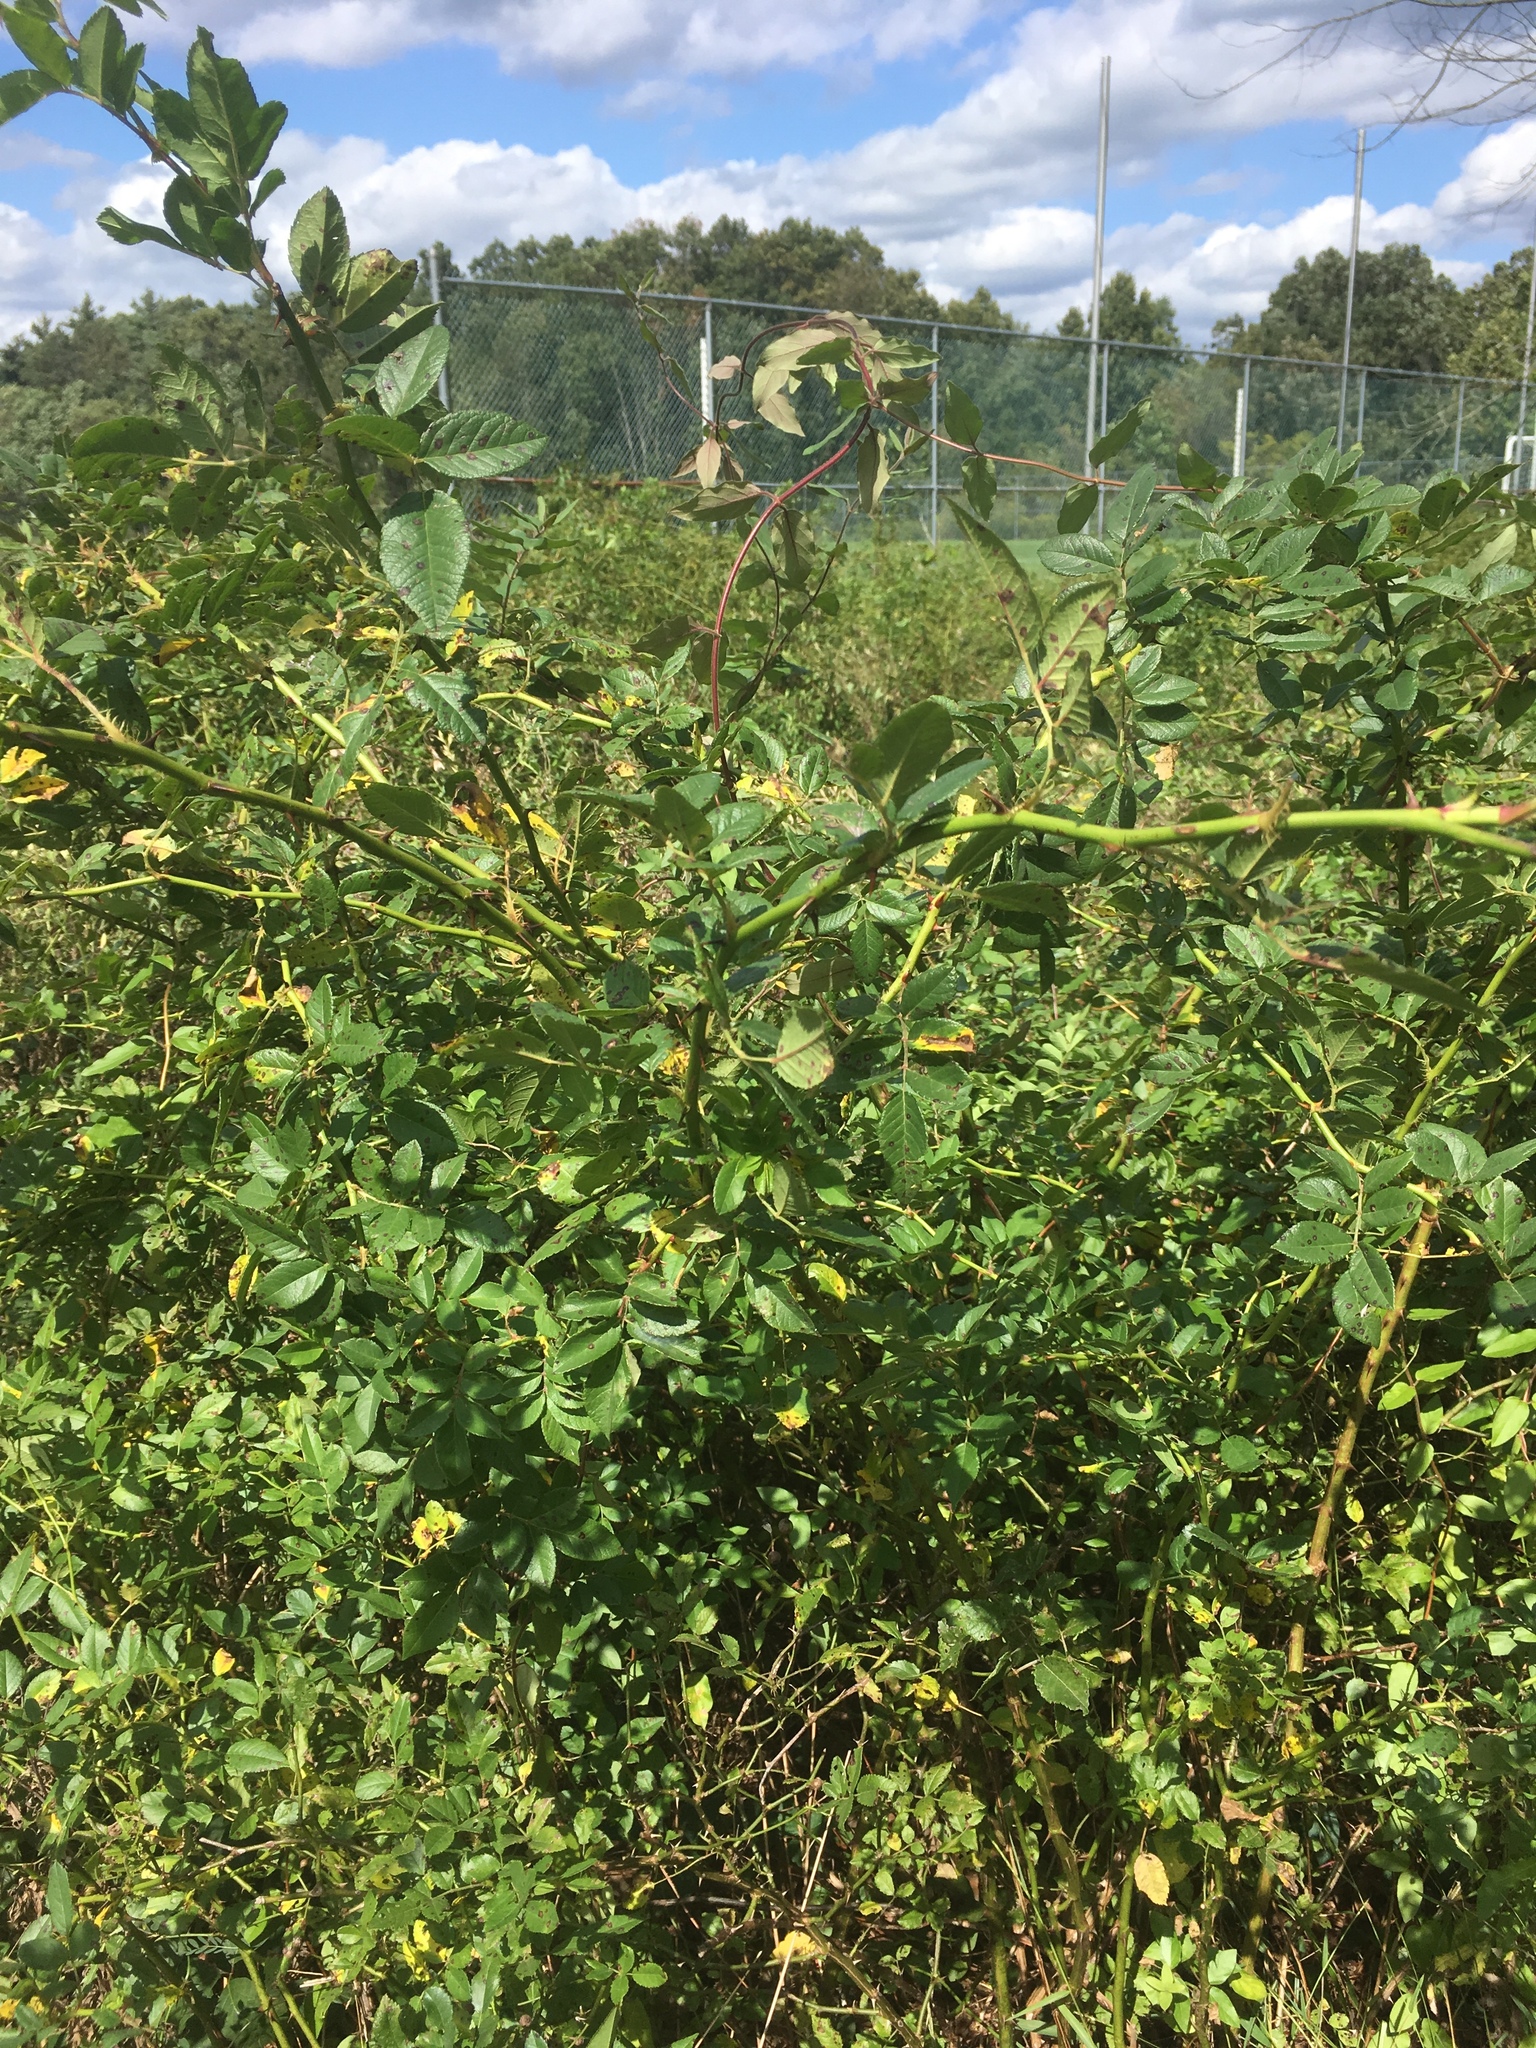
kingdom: Plantae
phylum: Tracheophyta
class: Magnoliopsida
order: Rosales
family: Rosaceae
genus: Rosa
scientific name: Rosa multiflora
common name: Multiflora rose
